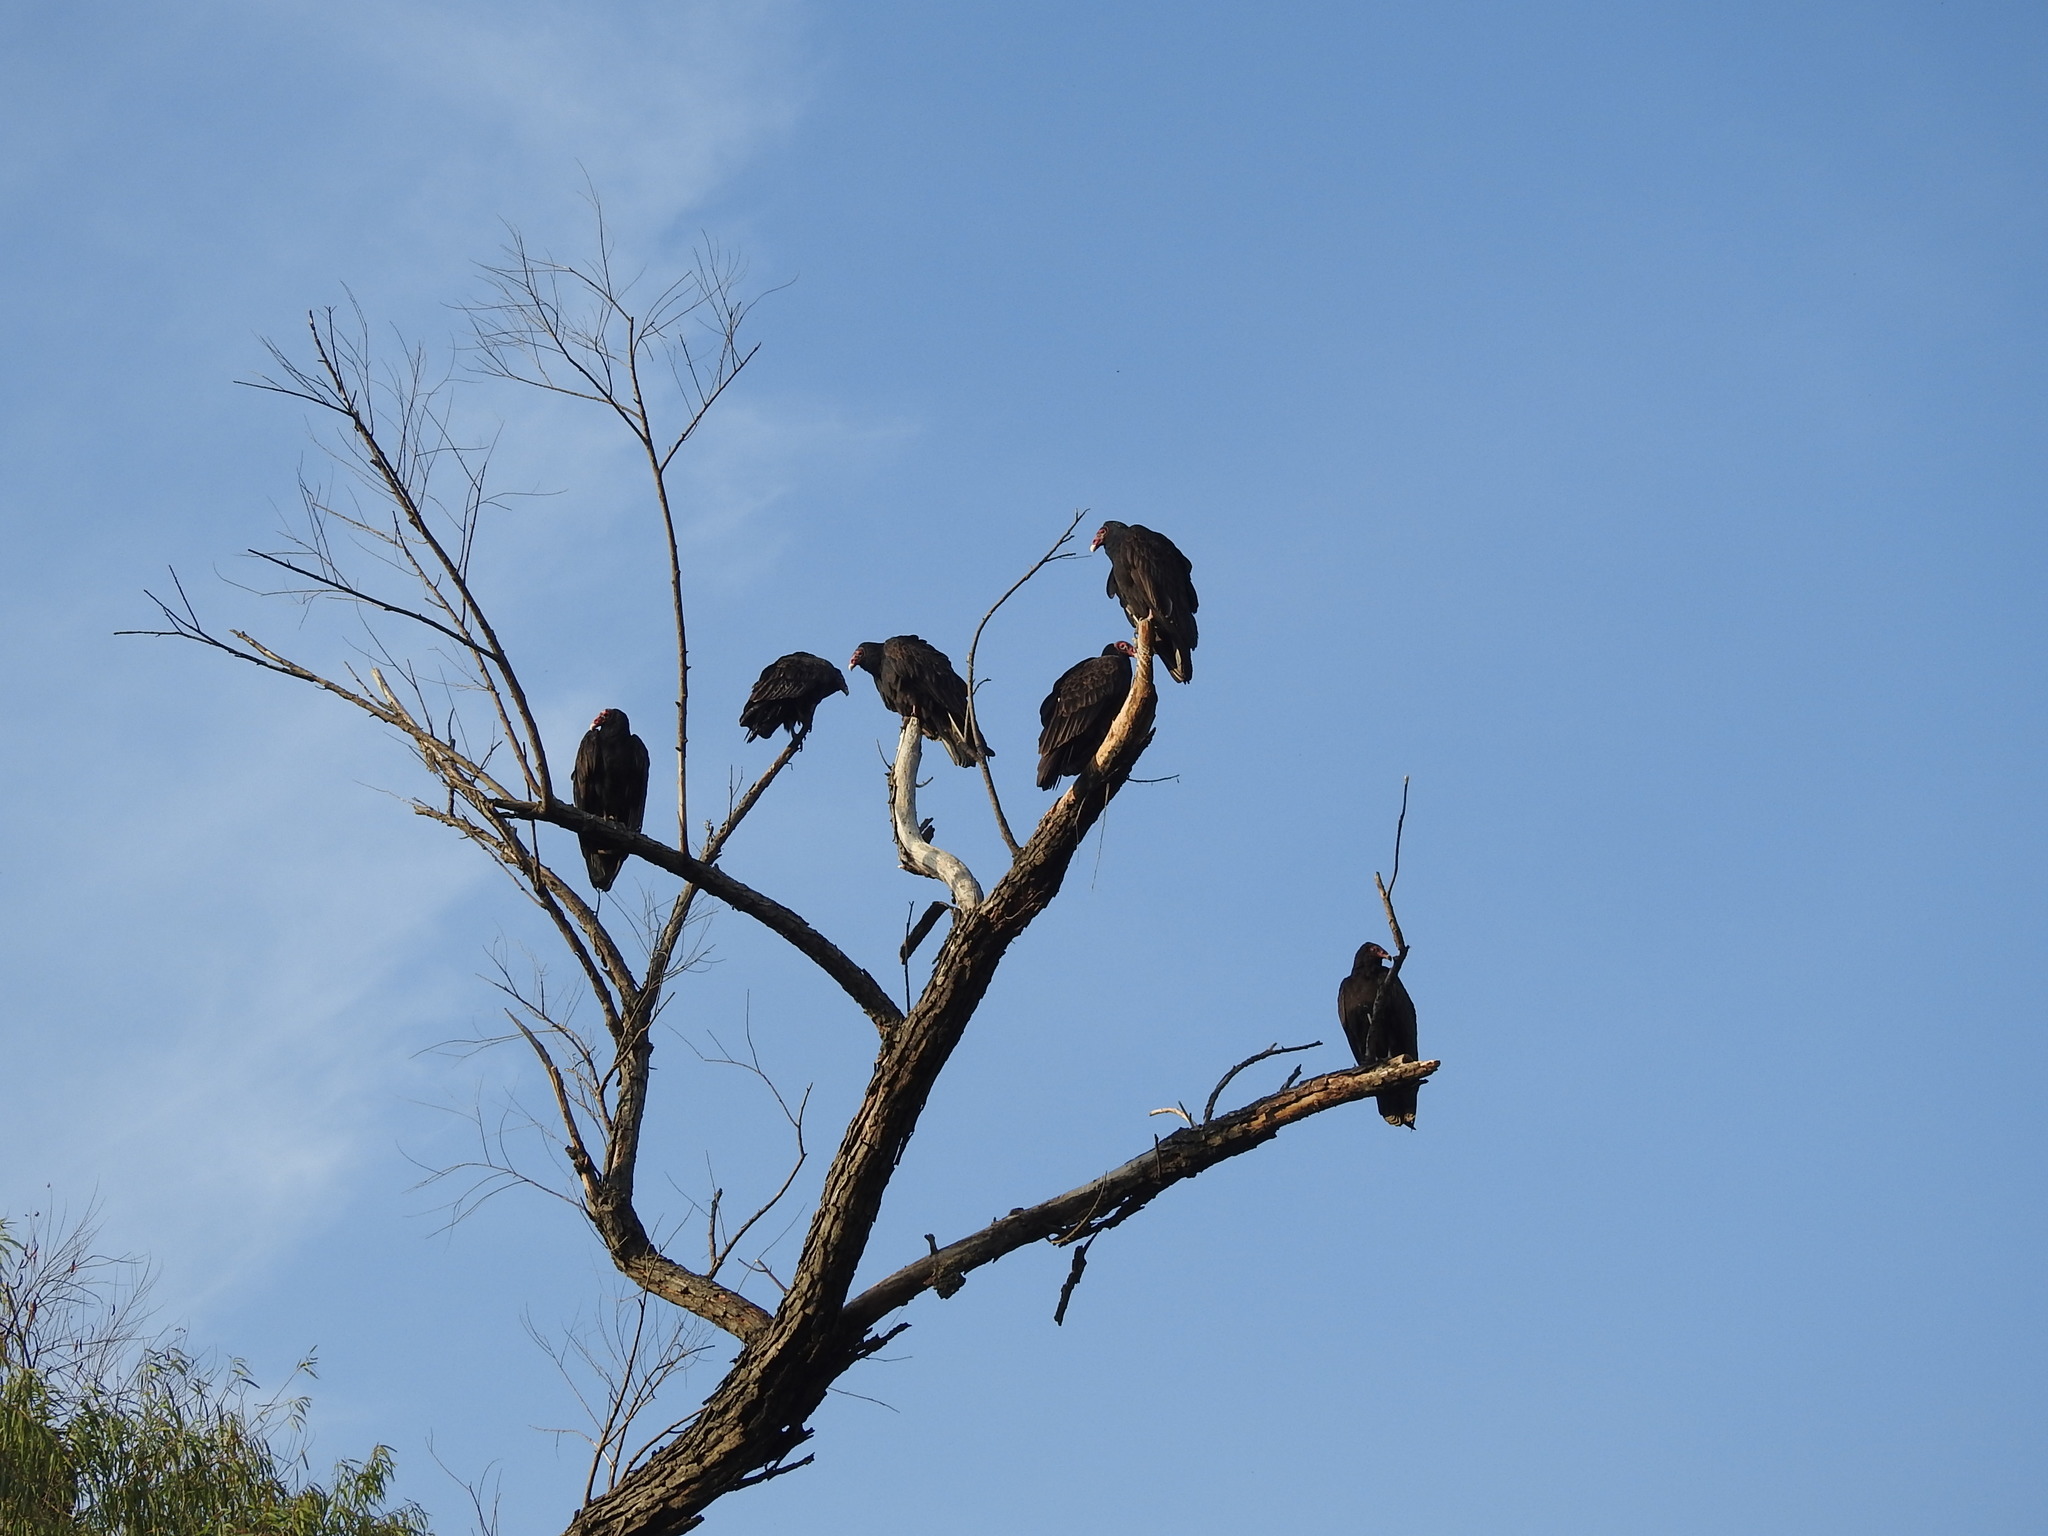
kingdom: Animalia
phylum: Chordata
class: Aves
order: Accipitriformes
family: Cathartidae
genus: Cathartes
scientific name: Cathartes aura
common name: Turkey vulture
